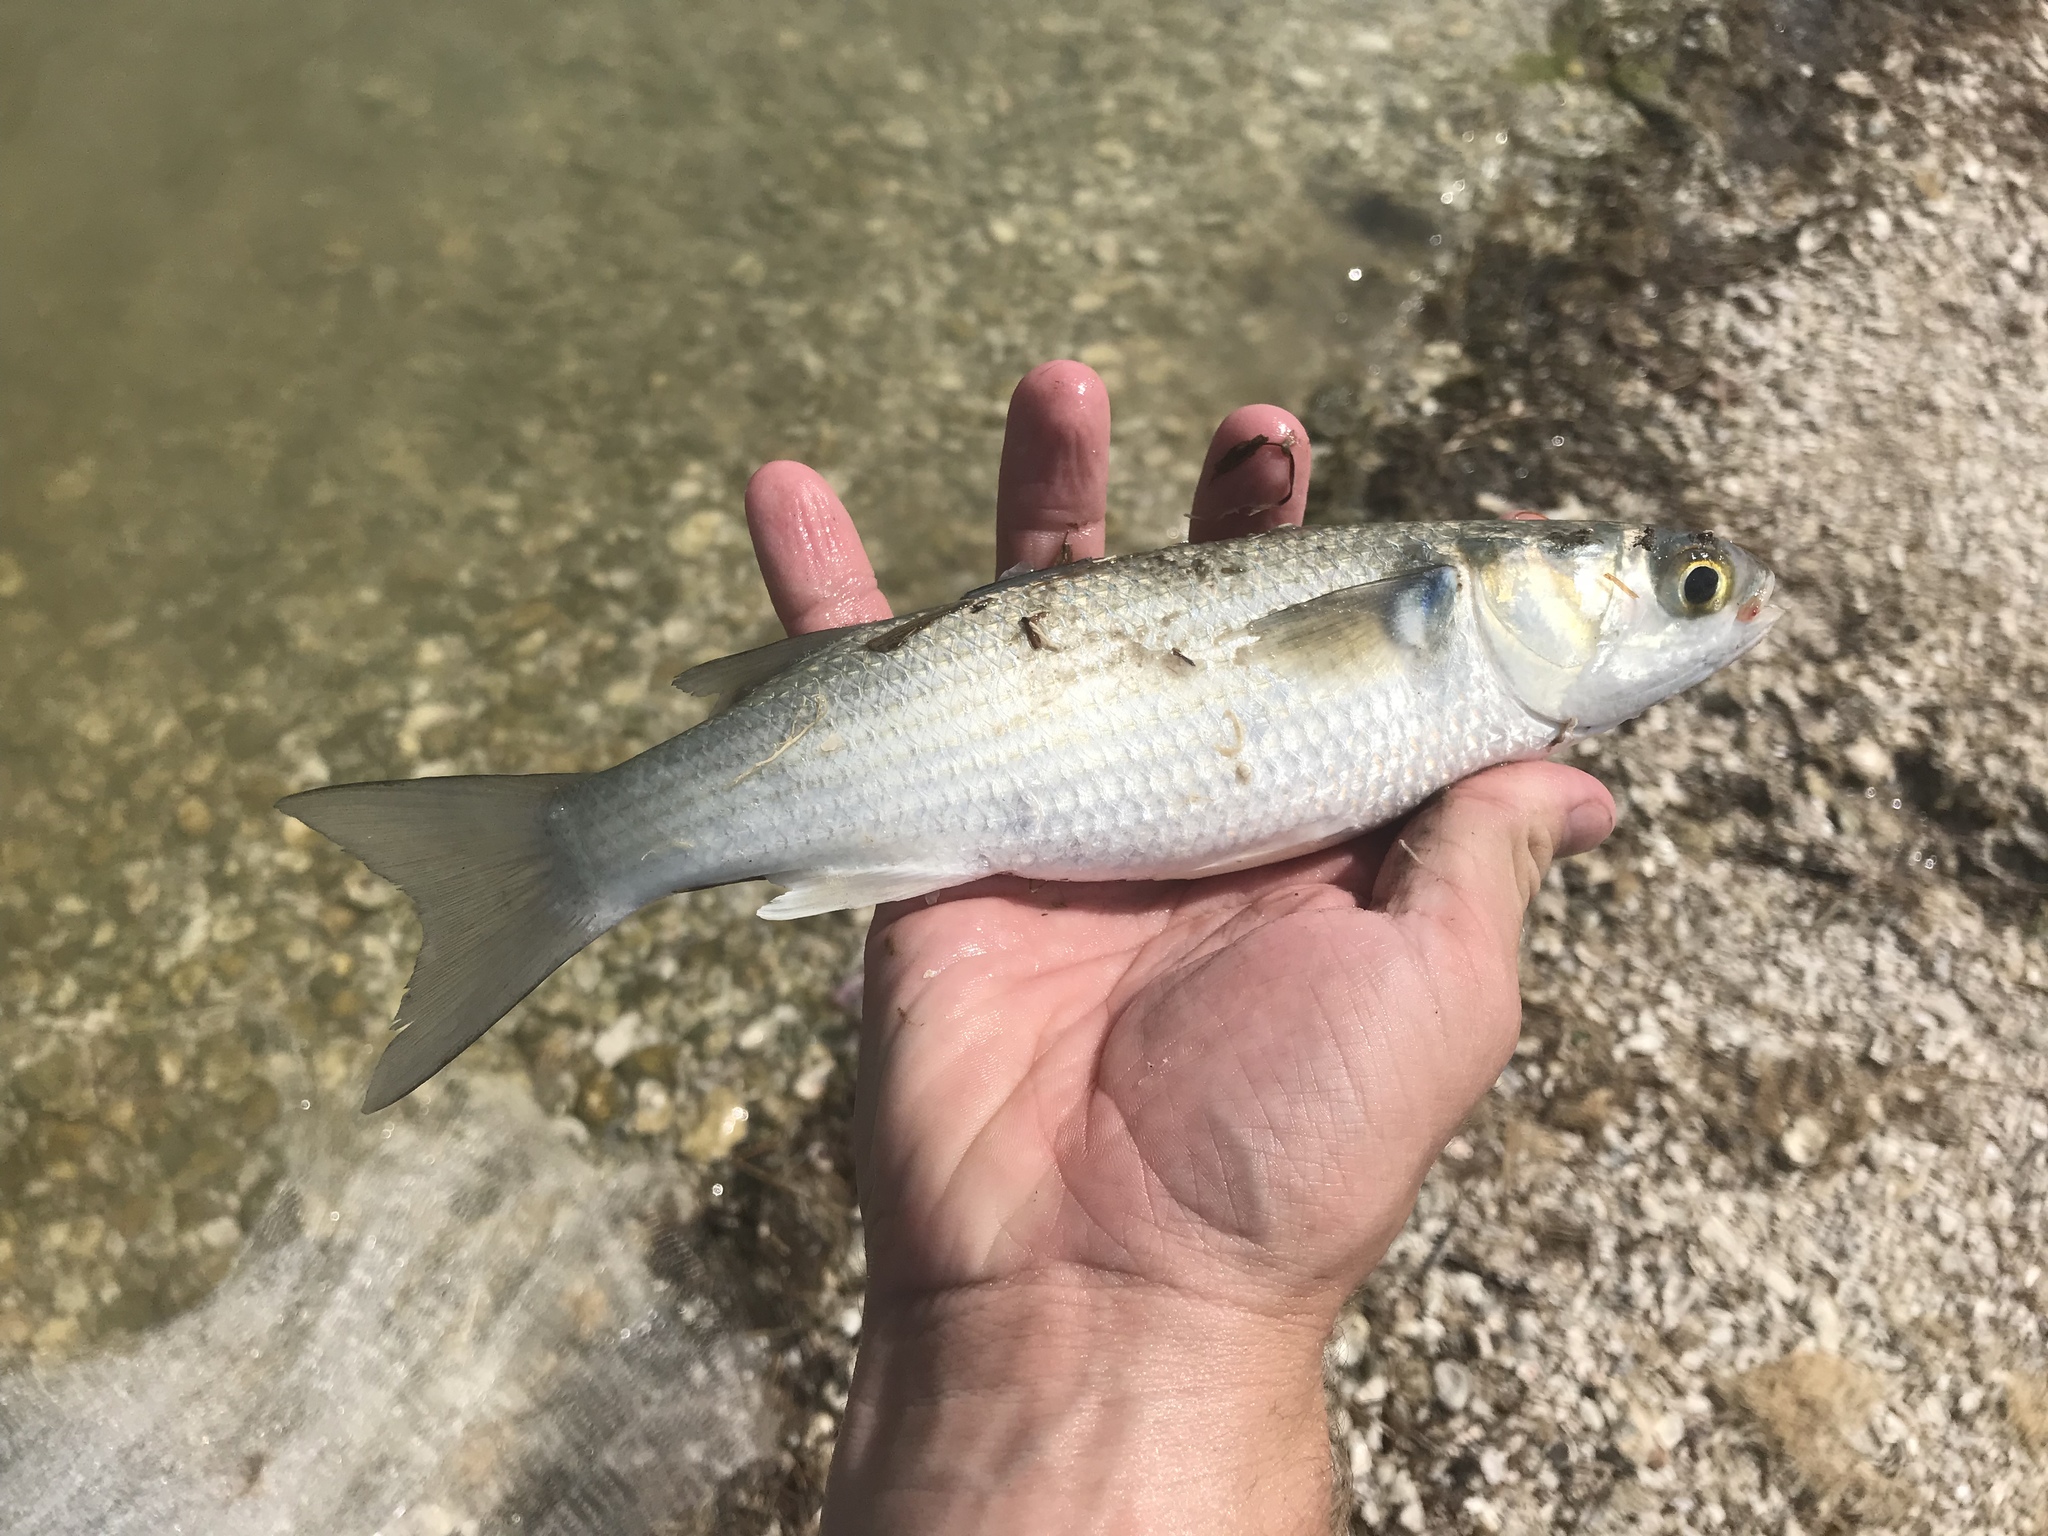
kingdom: Animalia
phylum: Chordata
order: Mugiliformes
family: Mugilidae
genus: Mugil
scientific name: Mugil curema
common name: White mullet
